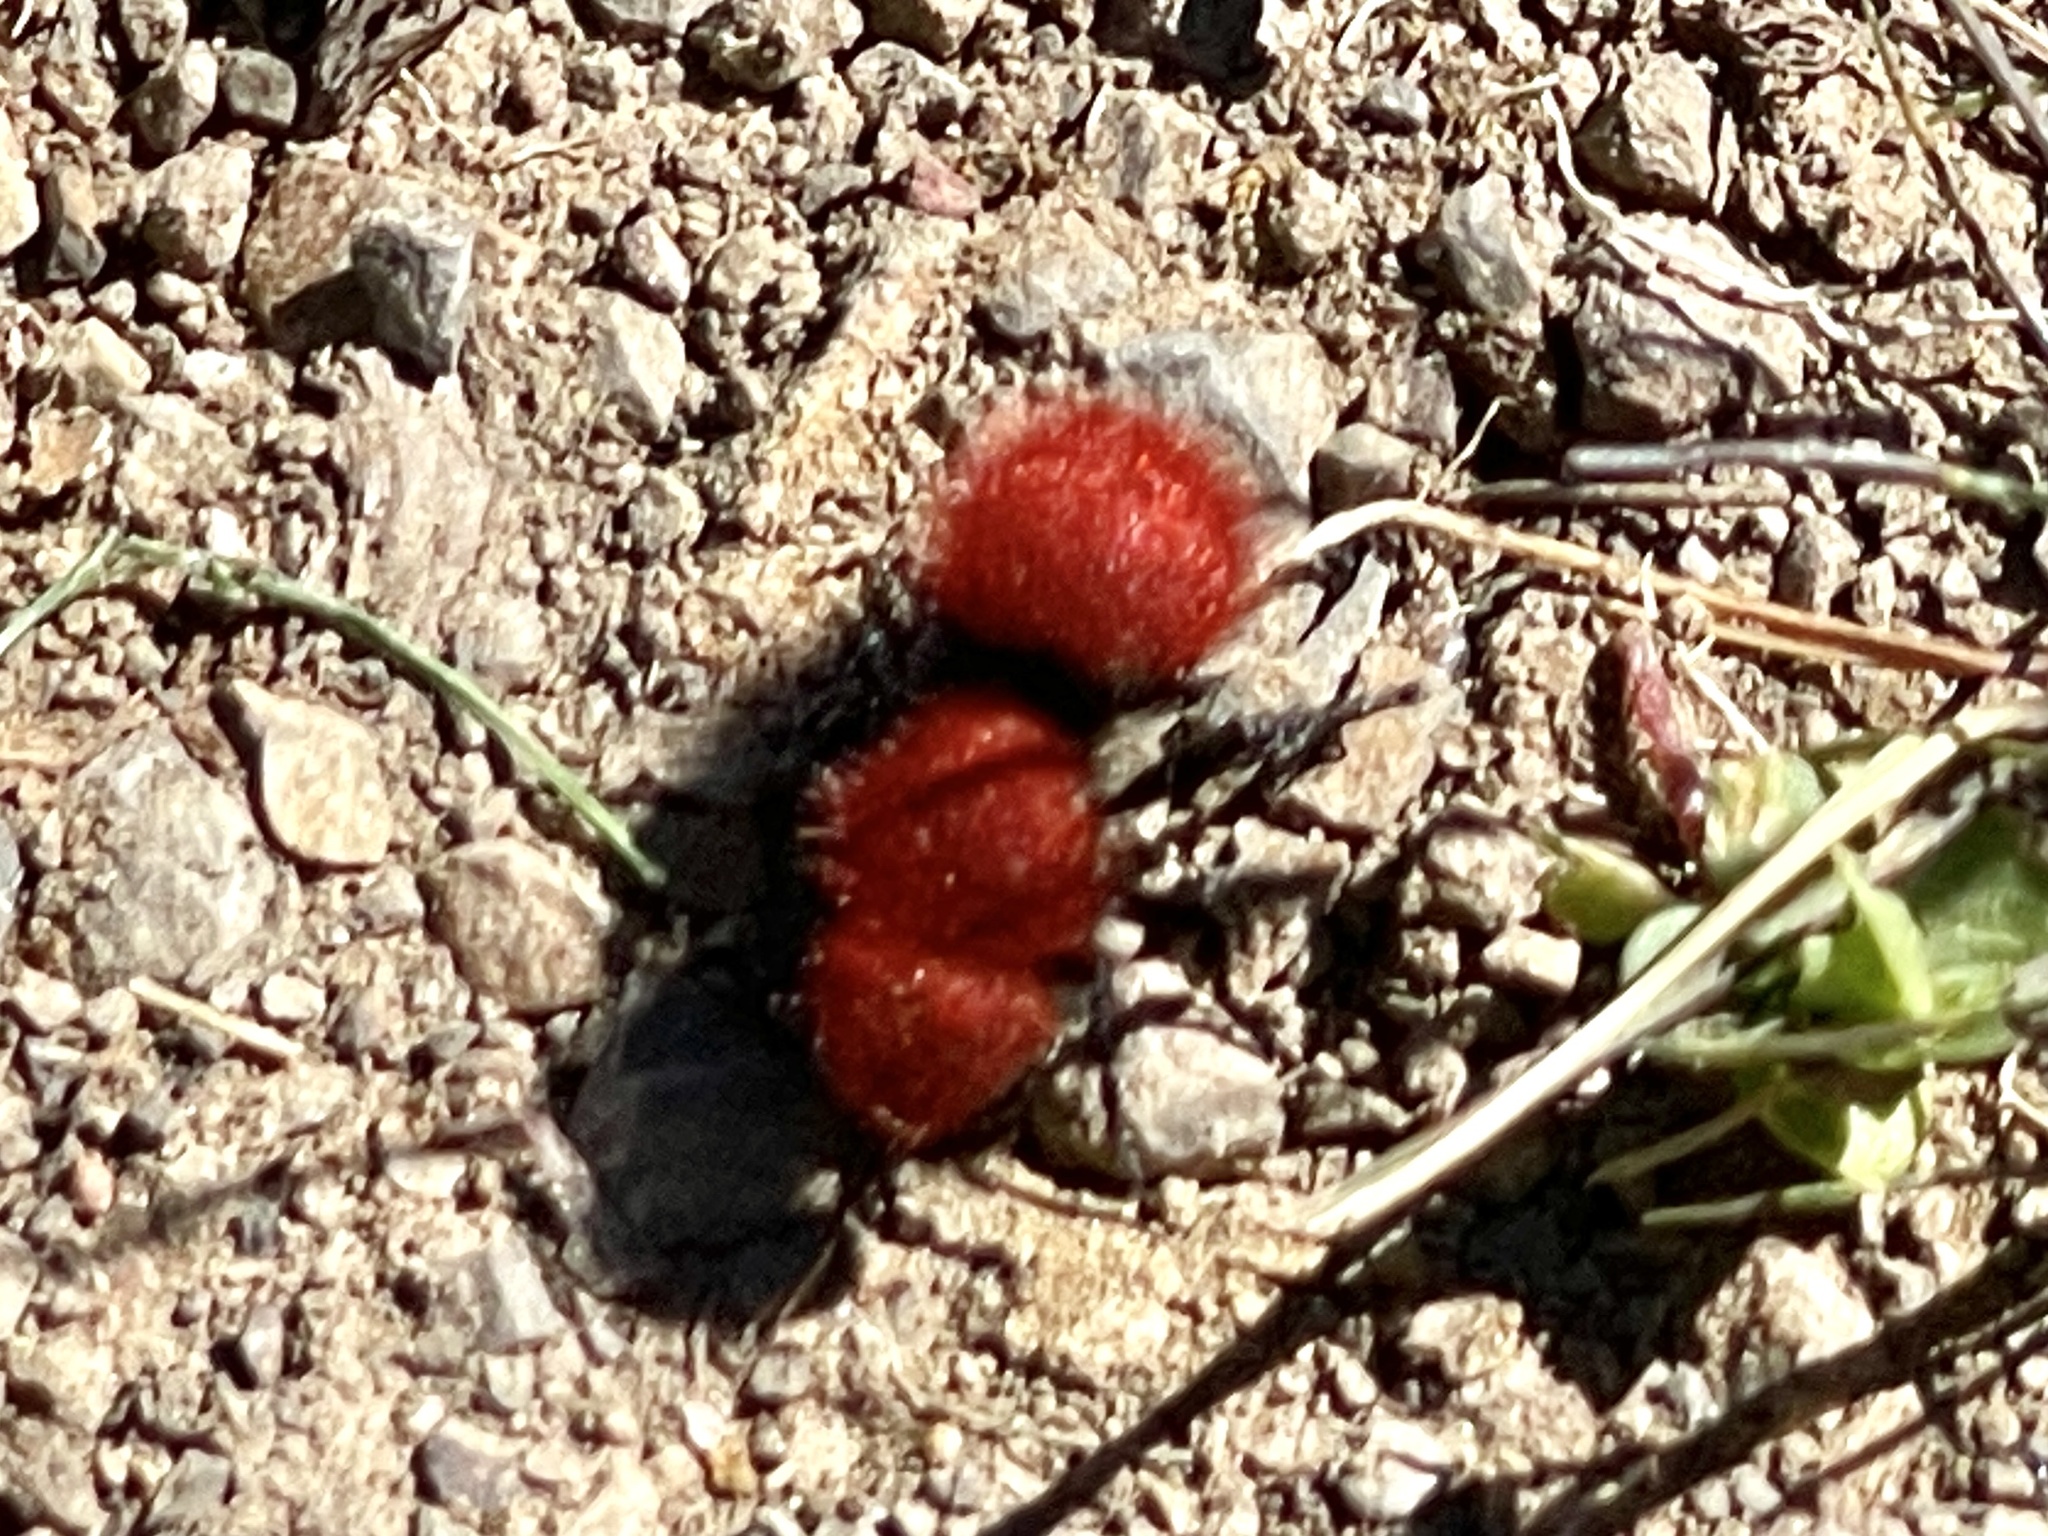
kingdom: Animalia
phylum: Arthropoda
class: Insecta
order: Hymenoptera
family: Mutillidae
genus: Dasymutilla
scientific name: Dasymutilla
